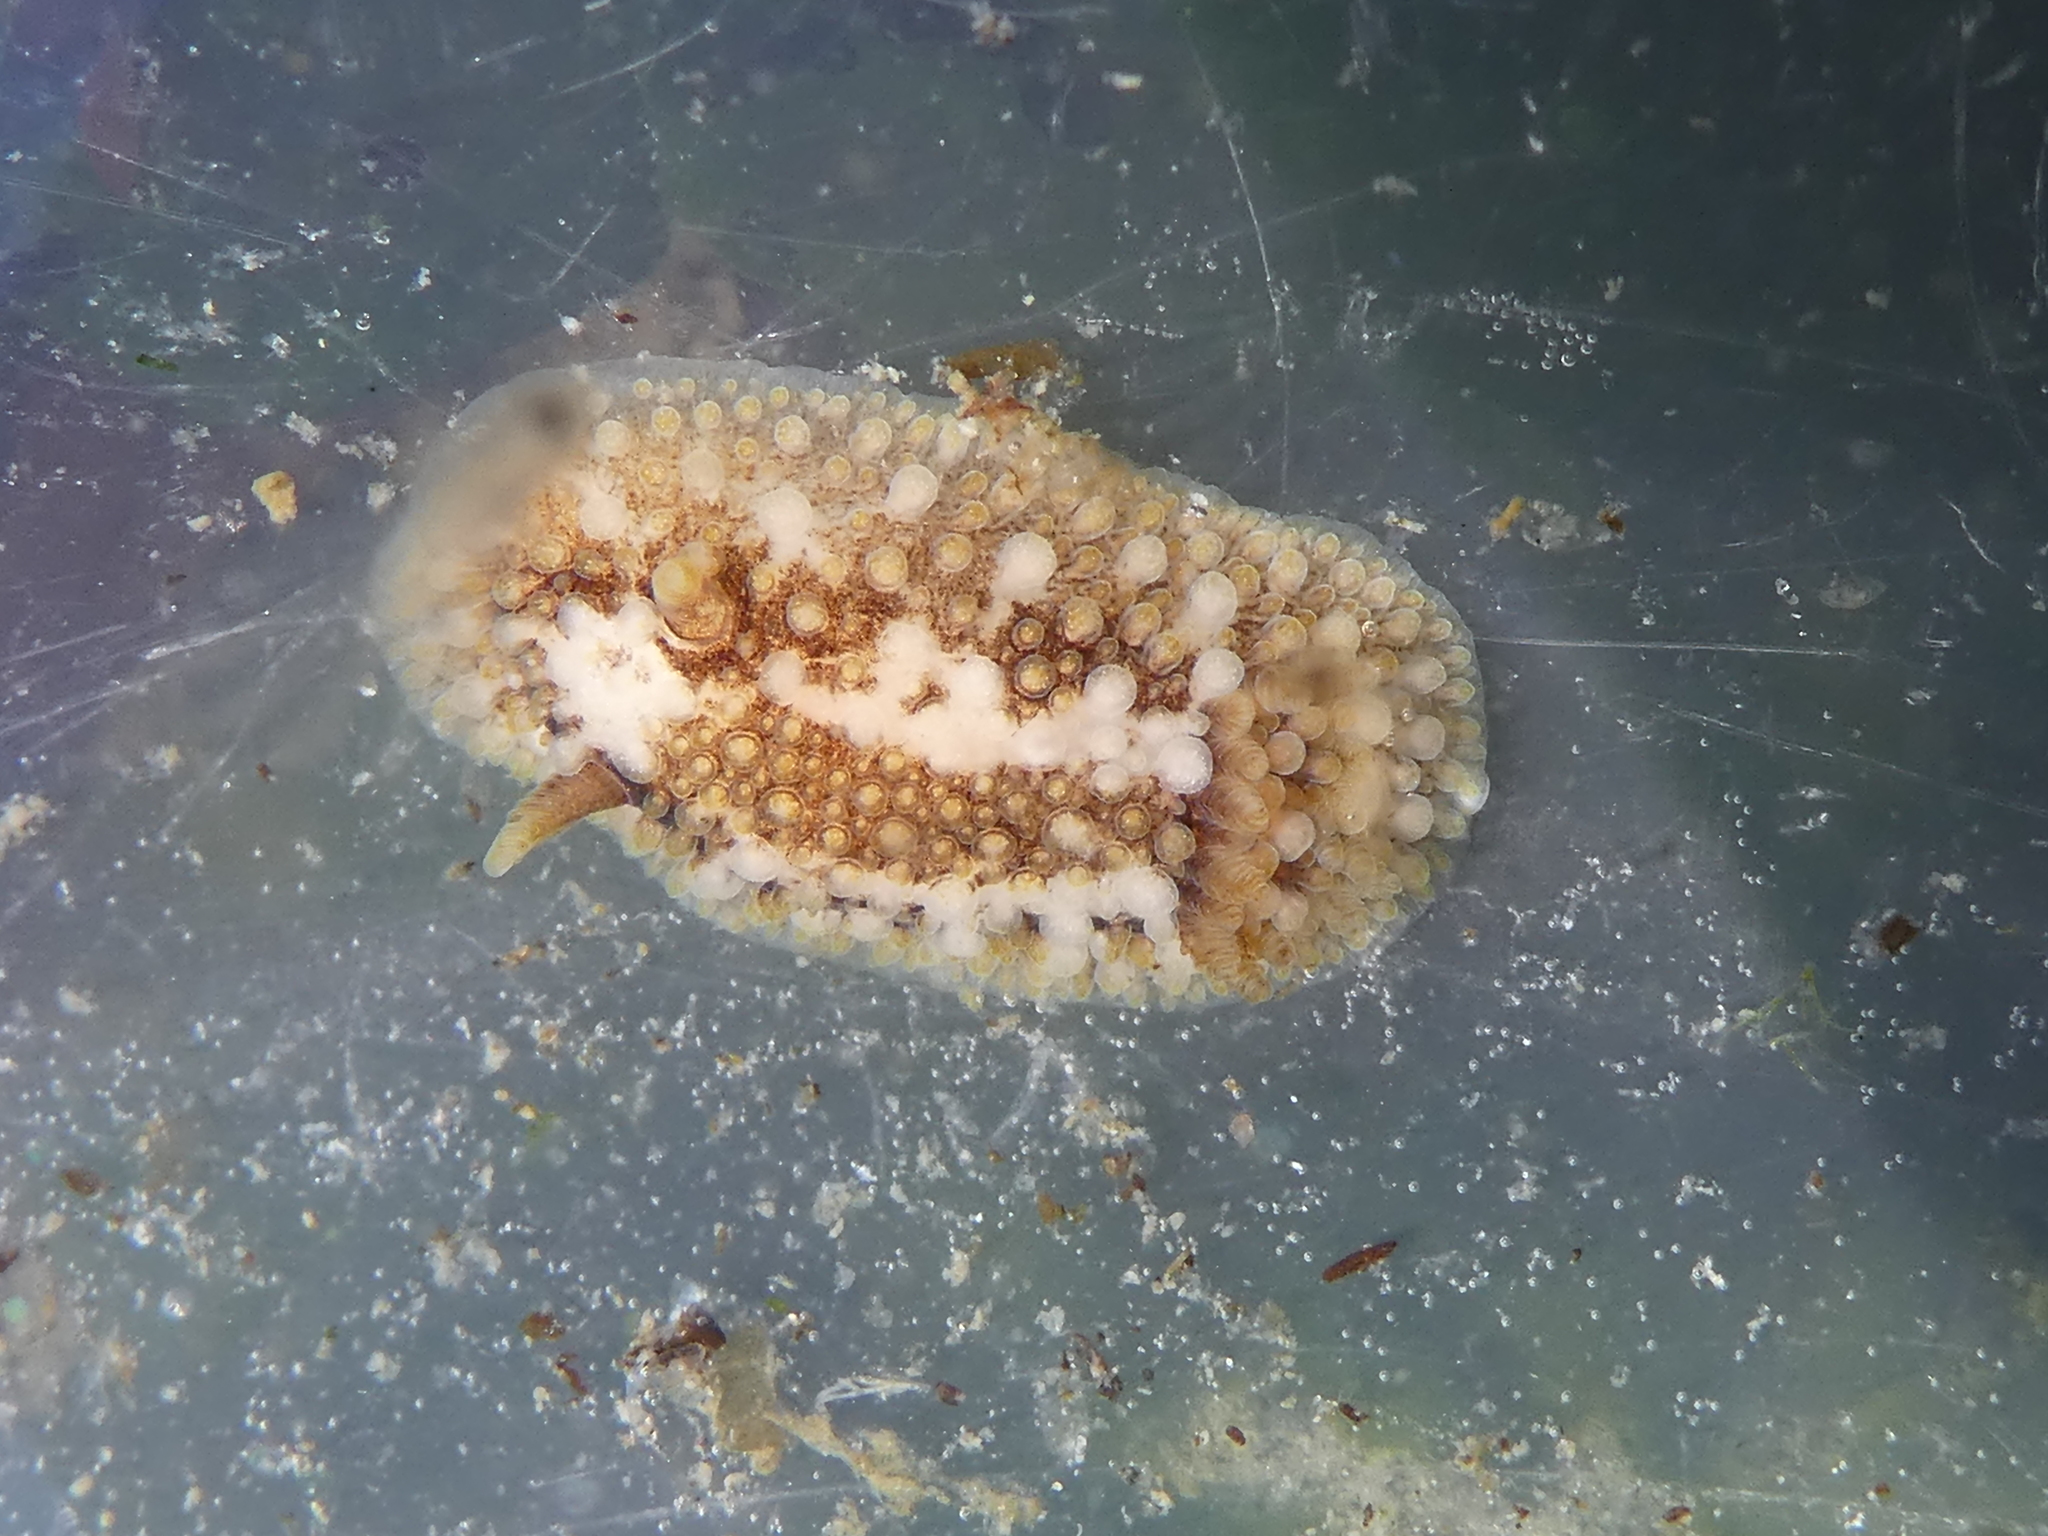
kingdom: Animalia
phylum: Mollusca
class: Gastropoda
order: Nudibranchia
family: Onchidorididae
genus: Onchidoris
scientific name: Onchidoris bilamellata
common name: Barnacle-eating onchidoris
